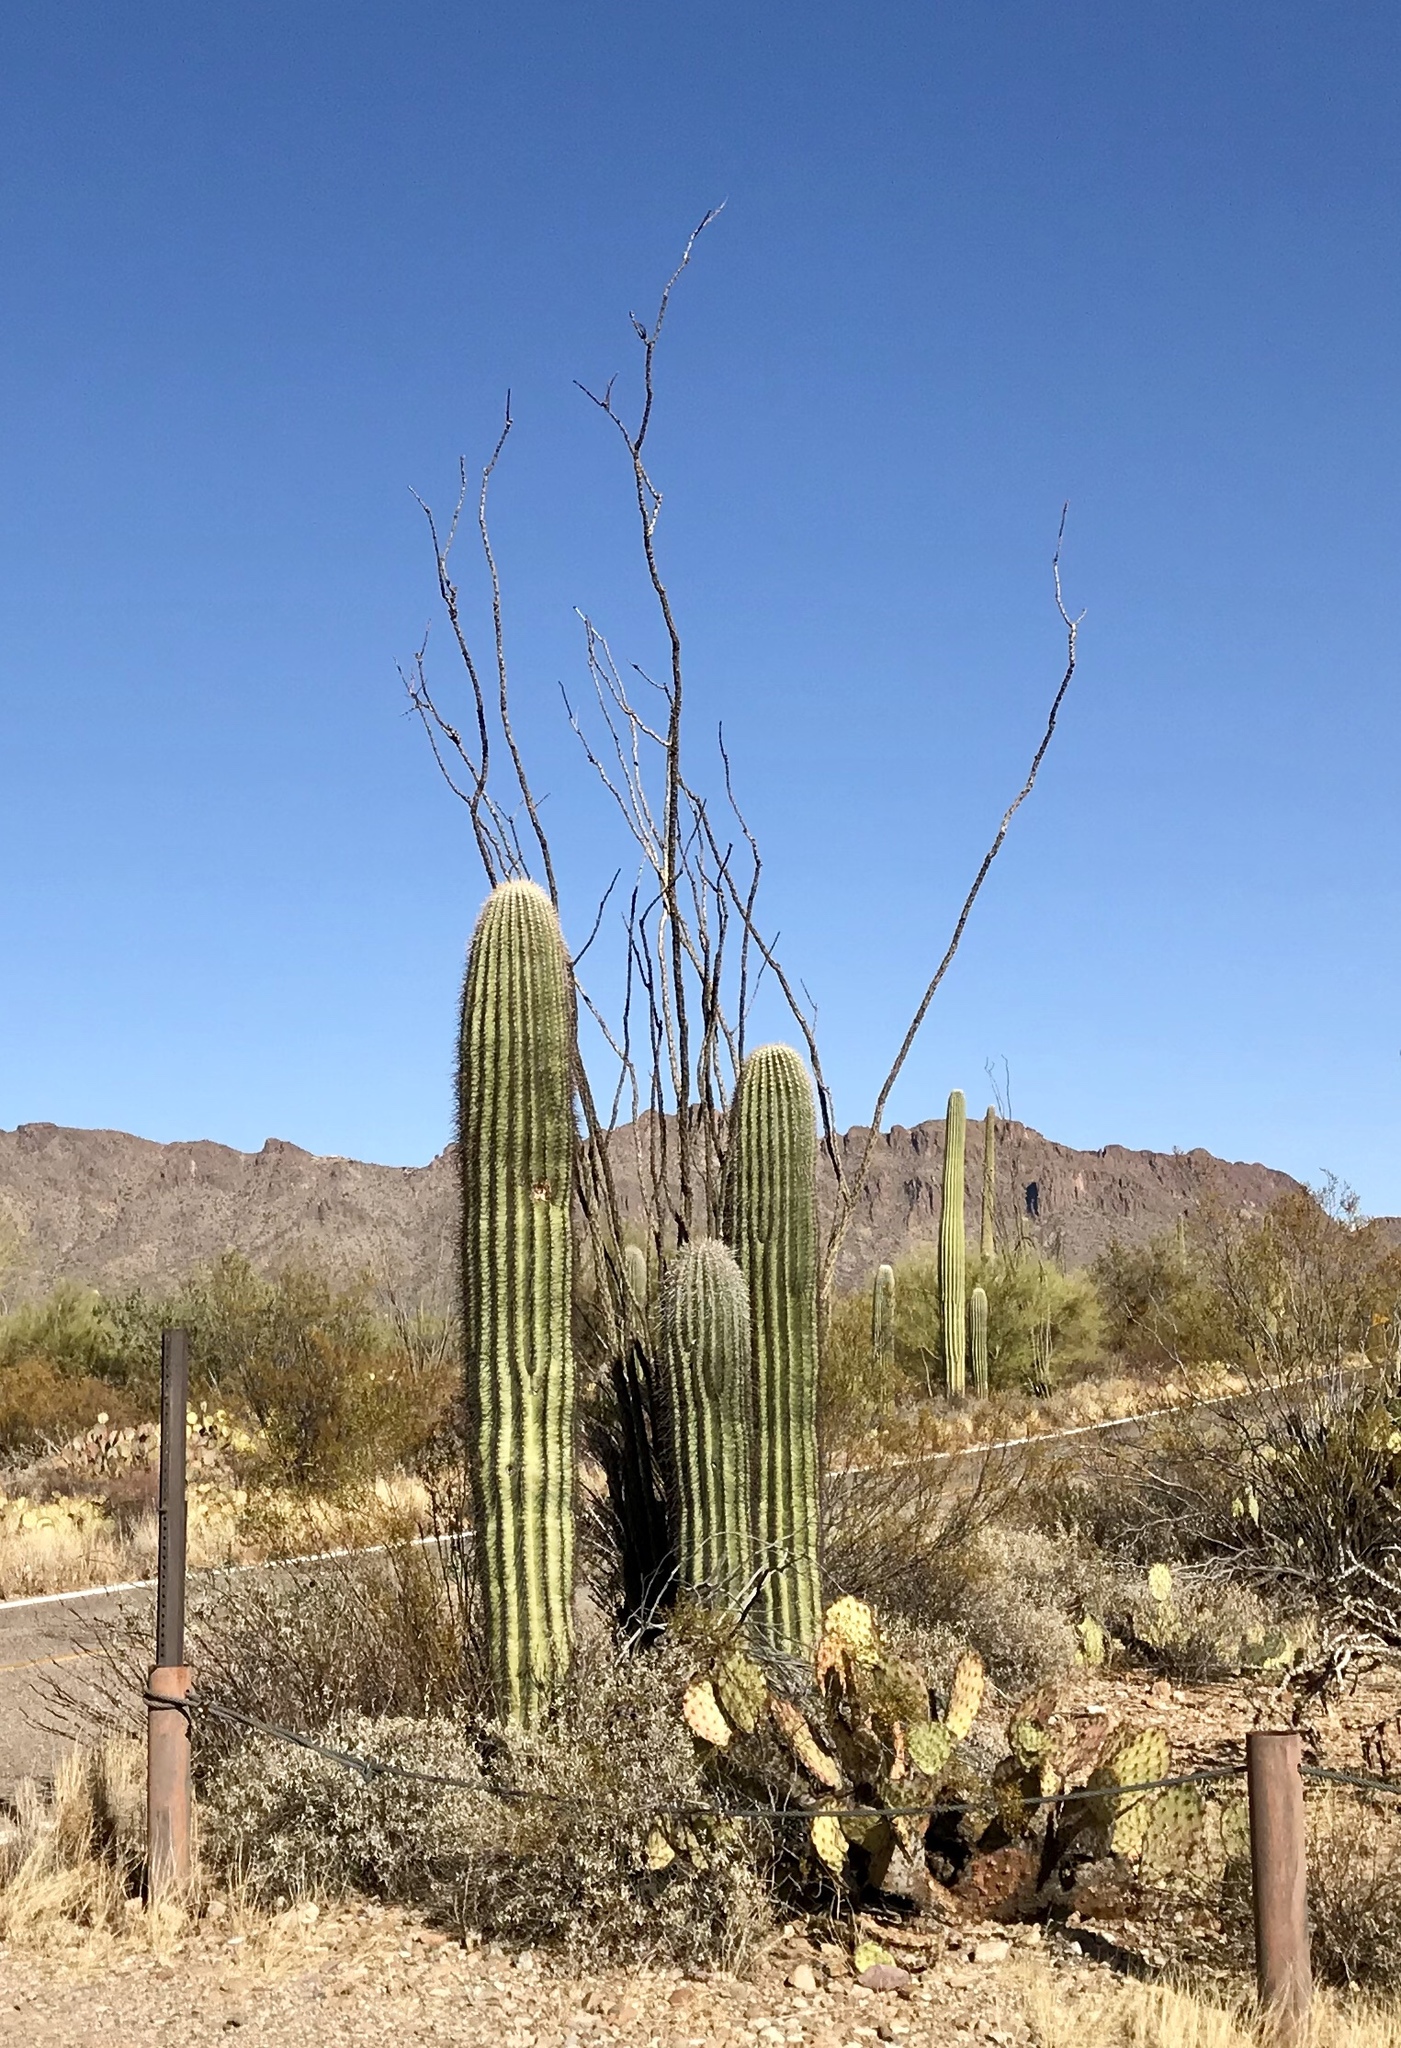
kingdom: Plantae
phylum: Tracheophyta
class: Magnoliopsida
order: Caryophyllales
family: Cactaceae
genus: Carnegiea
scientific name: Carnegiea gigantea
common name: Saguaro
